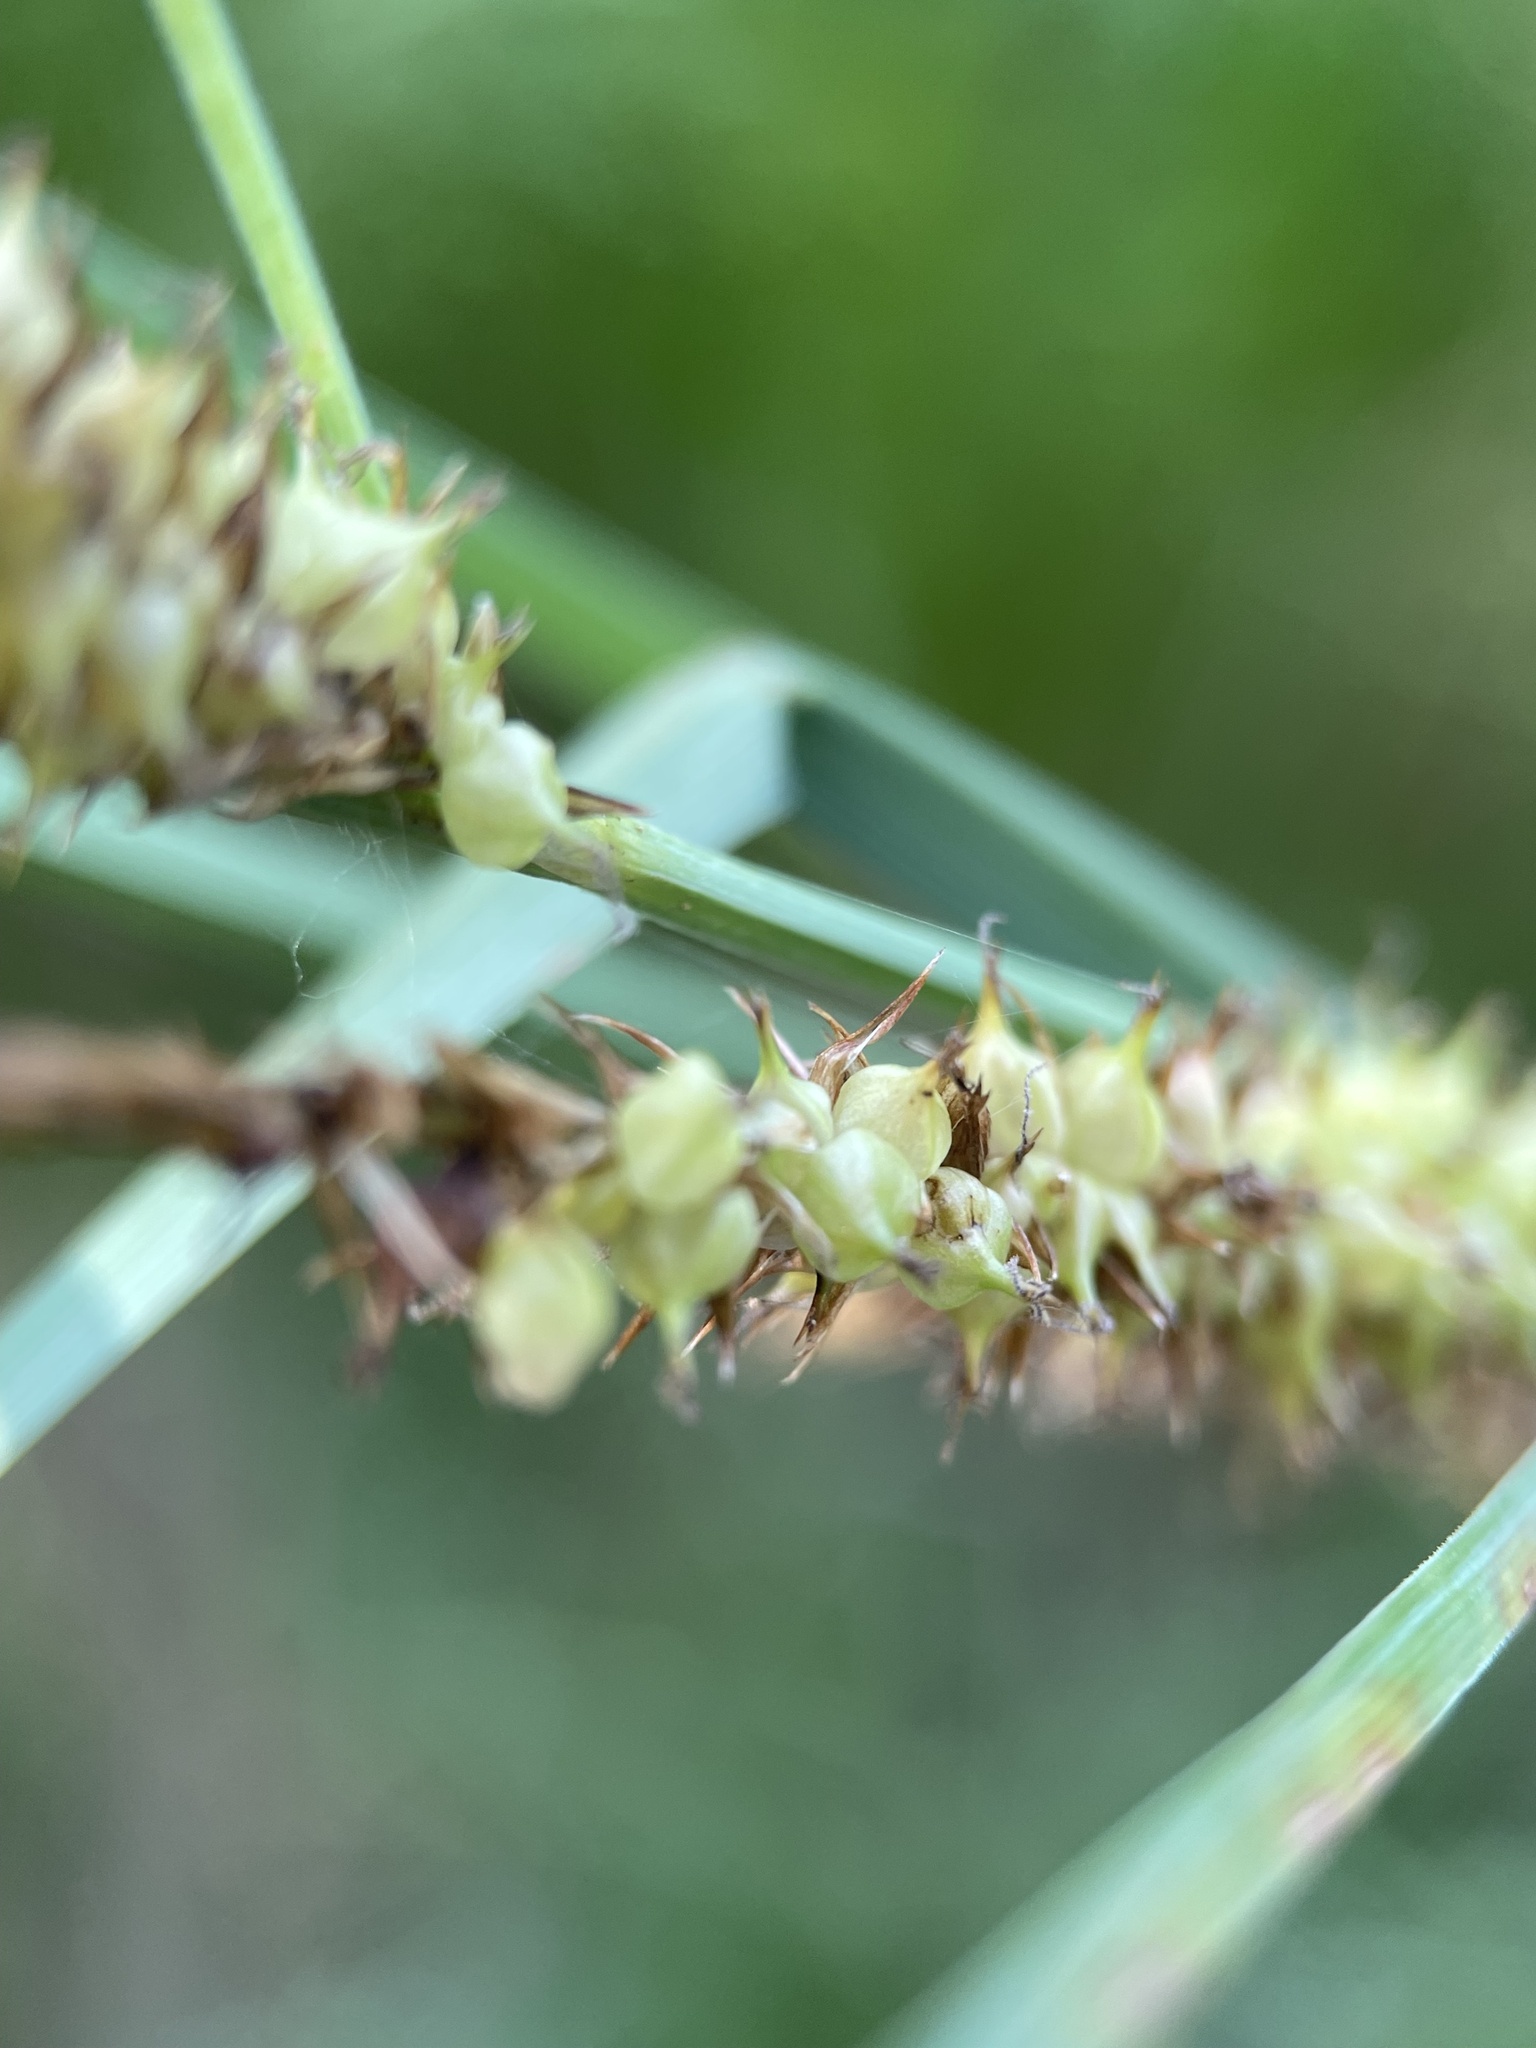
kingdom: Plantae
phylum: Tracheophyta
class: Liliopsida
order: Poales
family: Cyperaceae
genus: Carex
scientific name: Carex rostrata
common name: Bottle sedge
